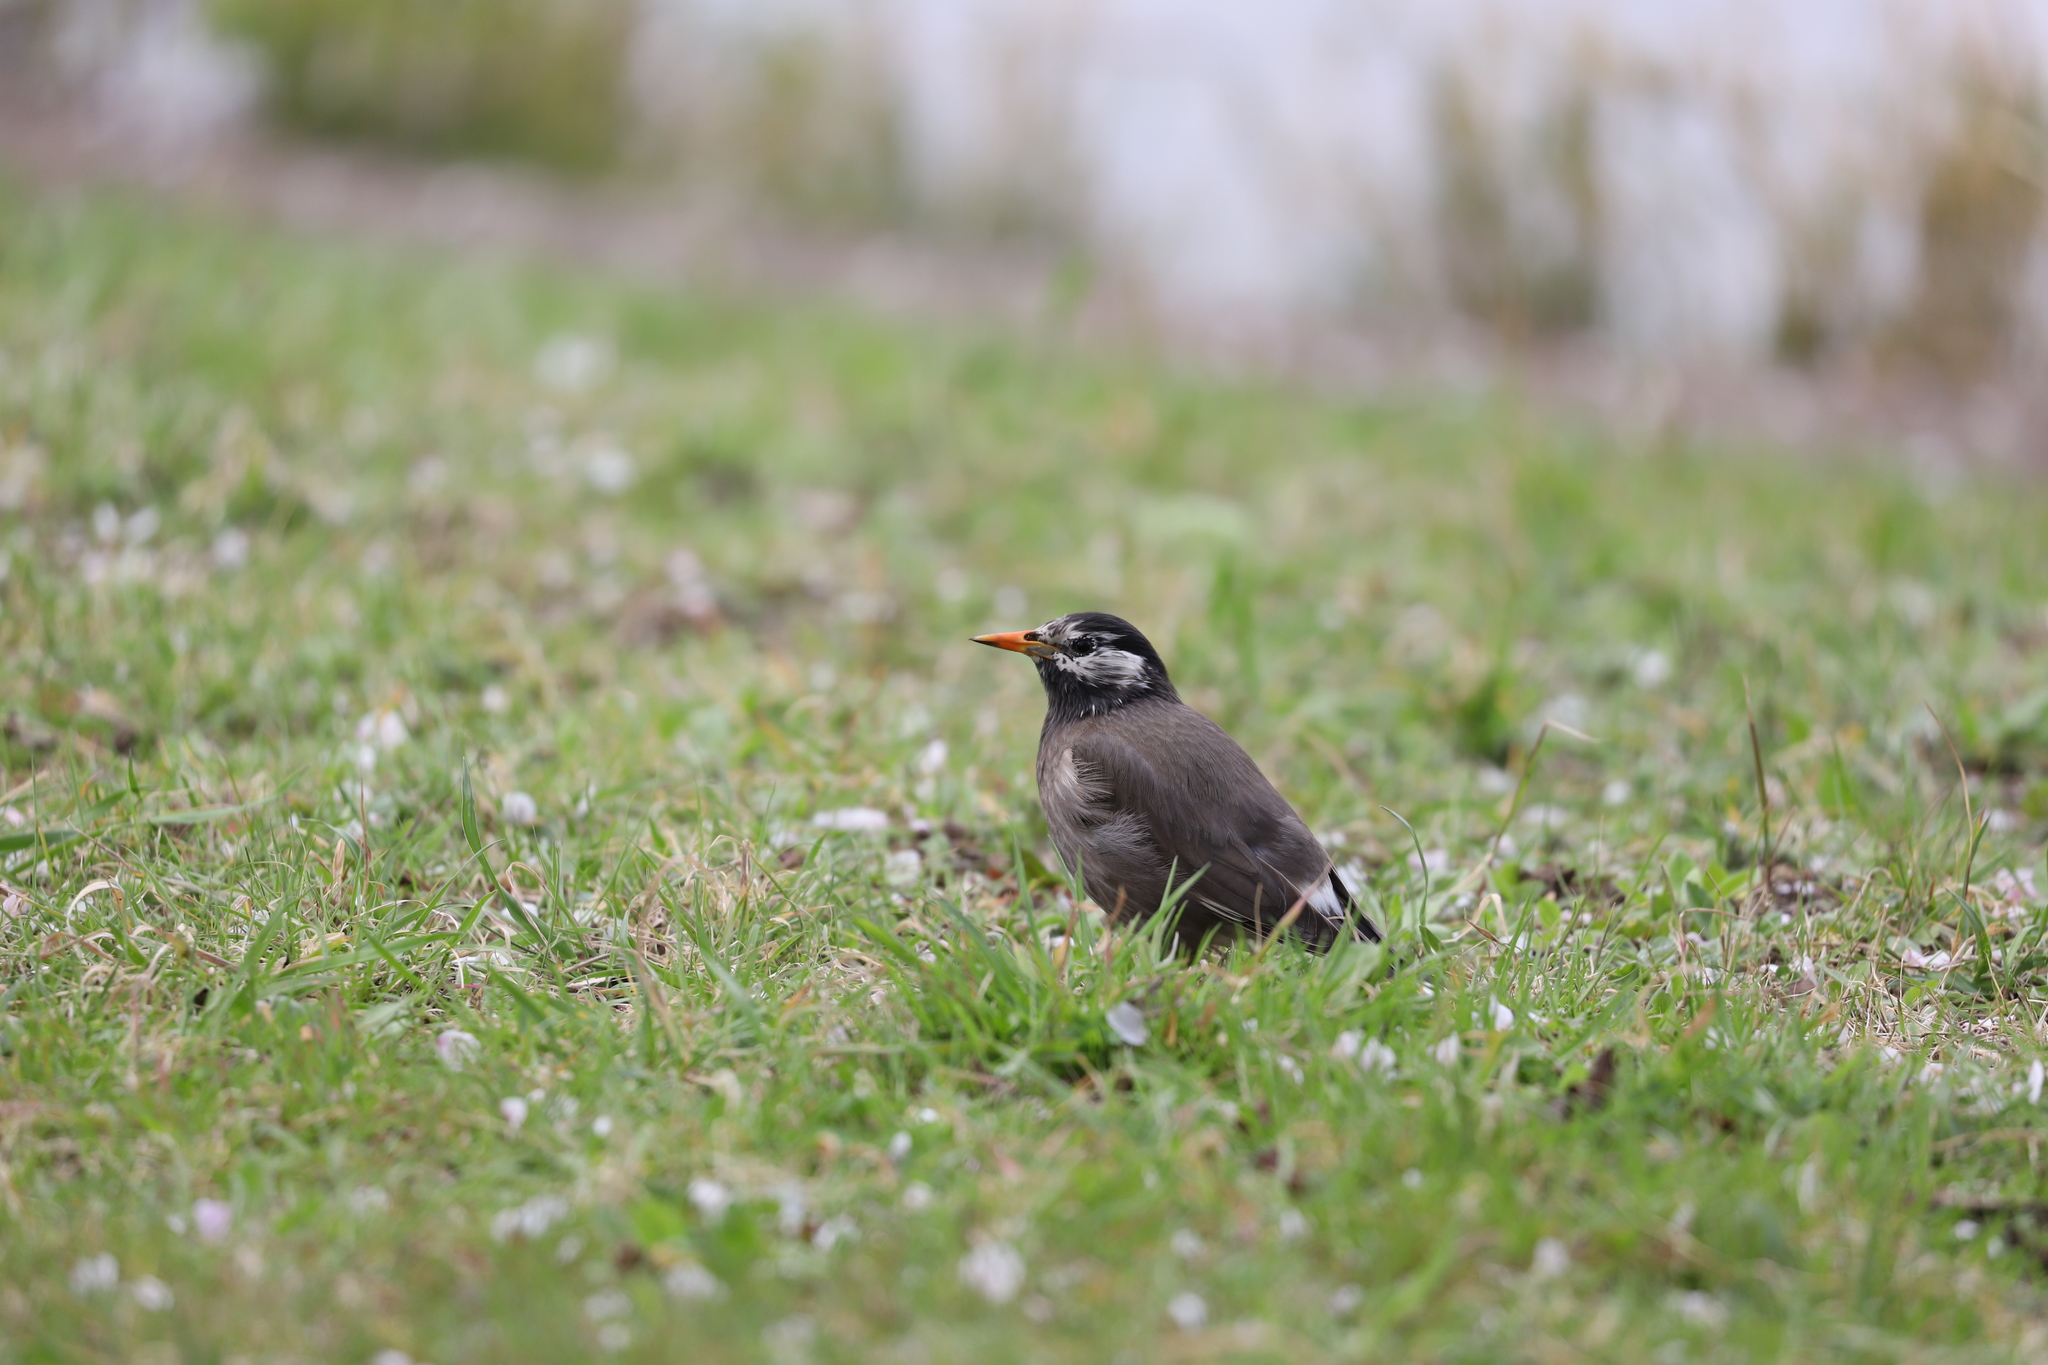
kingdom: Animalia
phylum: Chordata
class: Aves
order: Passeriformes
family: Sturnidae
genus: Spodiopsar
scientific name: Spodiopsar cineraceus
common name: White-cheeked starling
